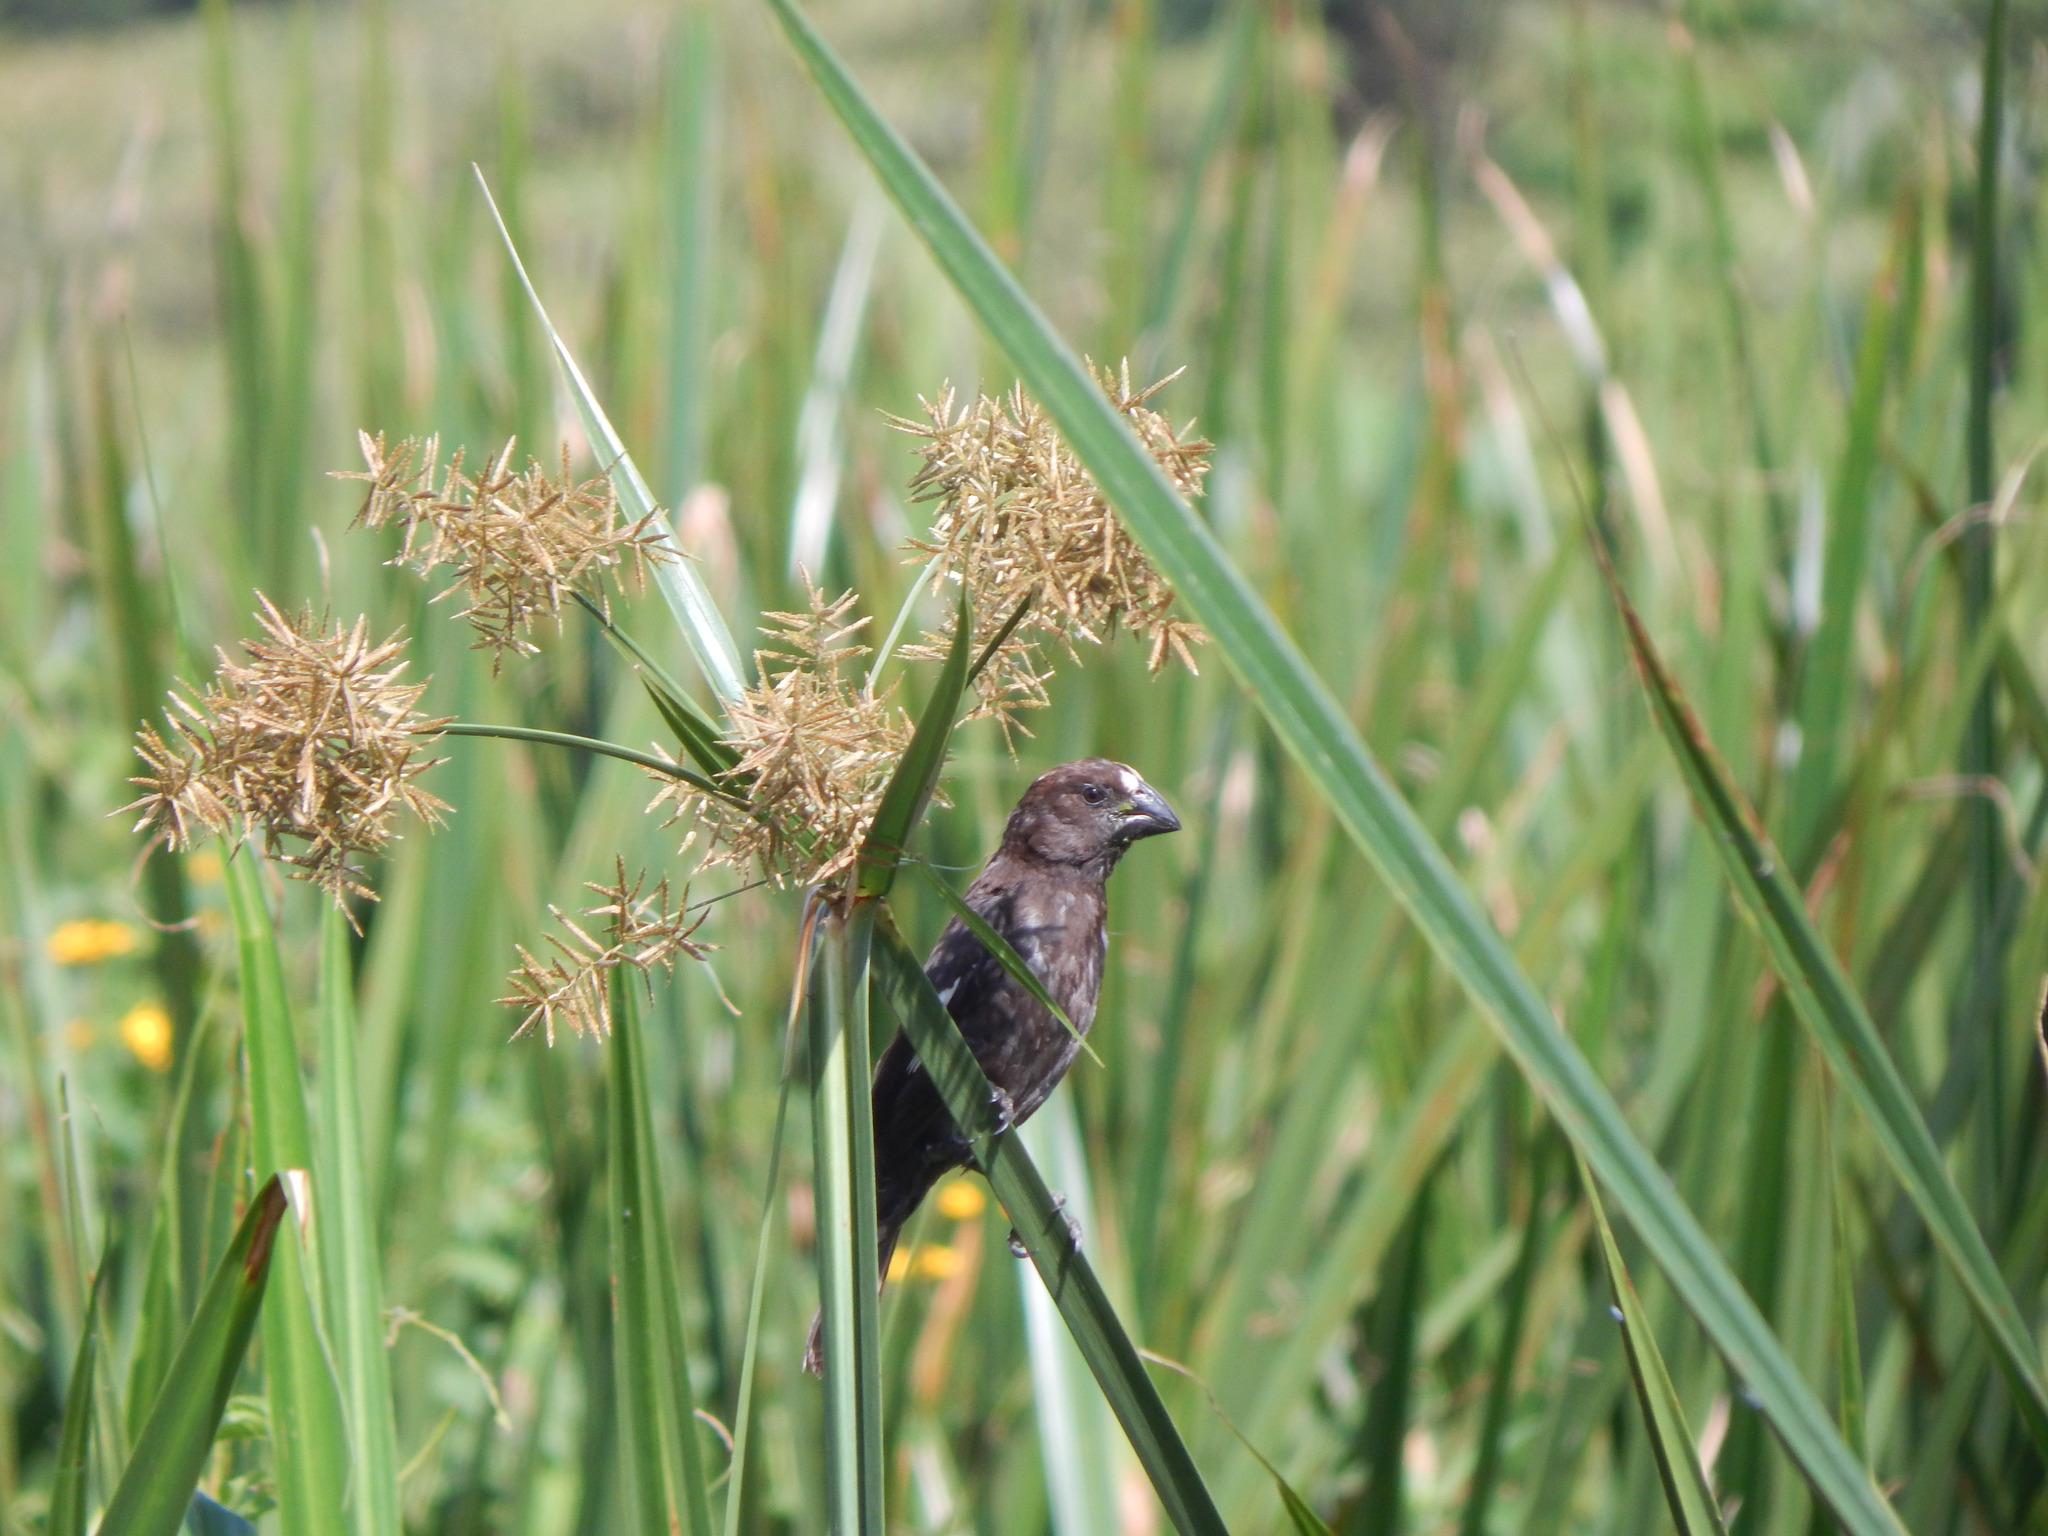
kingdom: Animalia
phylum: Chordata
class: Aves
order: Passeriformes
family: Ploceidae
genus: Amblyospiza
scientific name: Amblyospiza albifrons
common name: Thick-billed weaver
